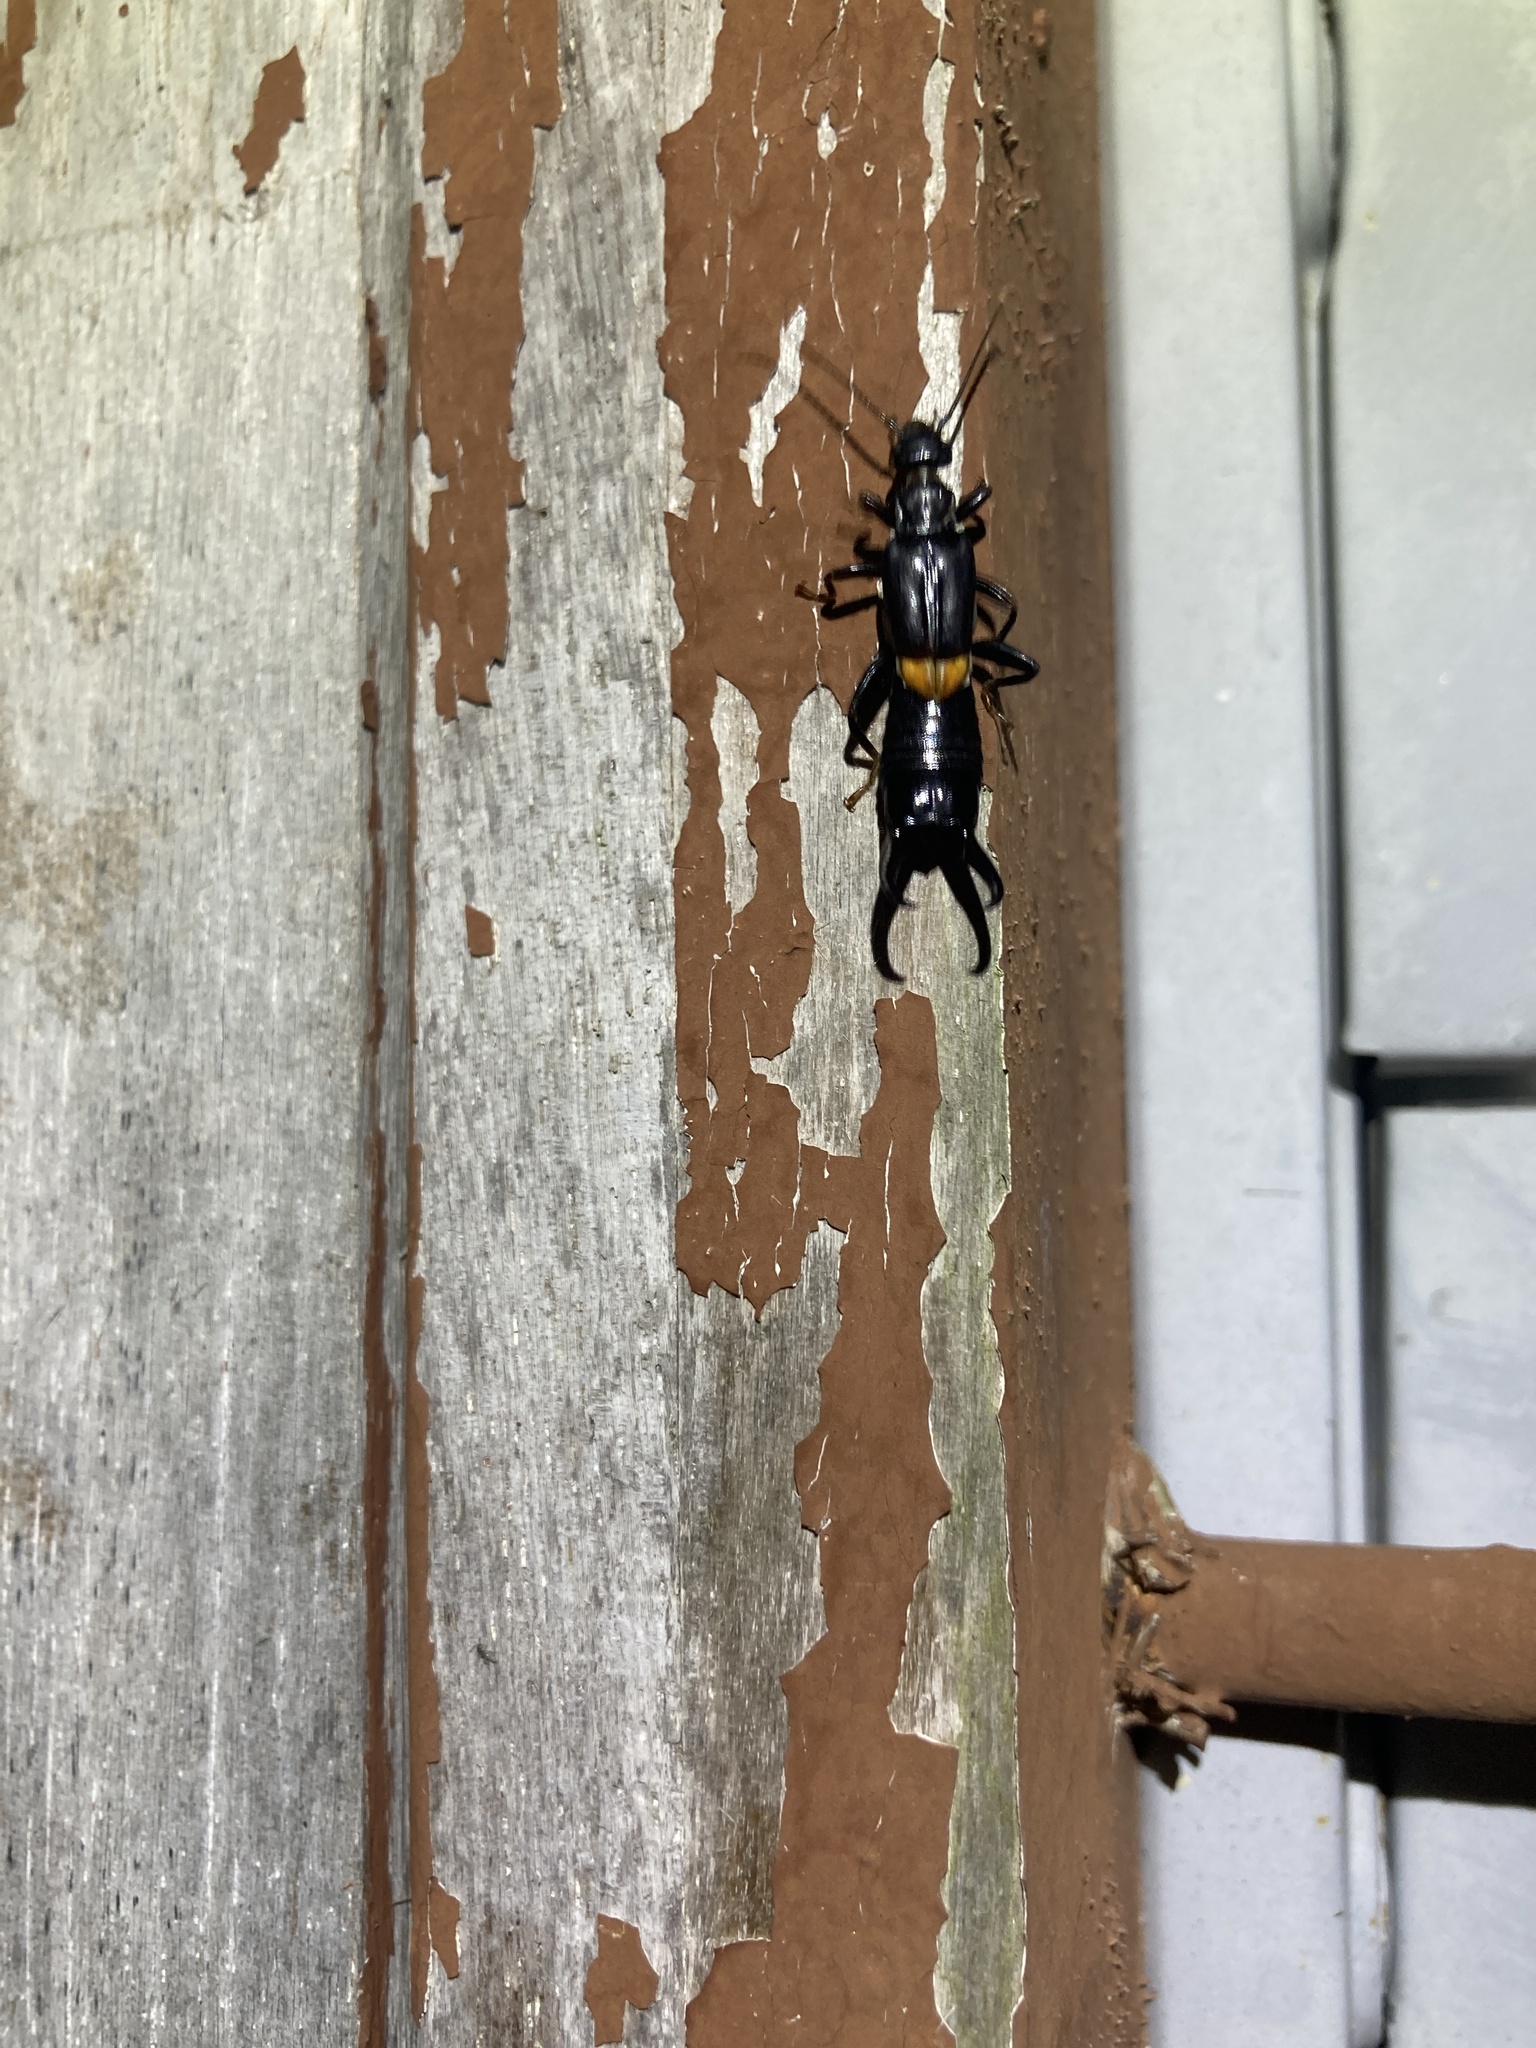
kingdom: Animalia
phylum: Arthropoda
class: Insecta
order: Dermaptera
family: Labiduridae
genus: Allostethus
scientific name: Allostethus setiger
